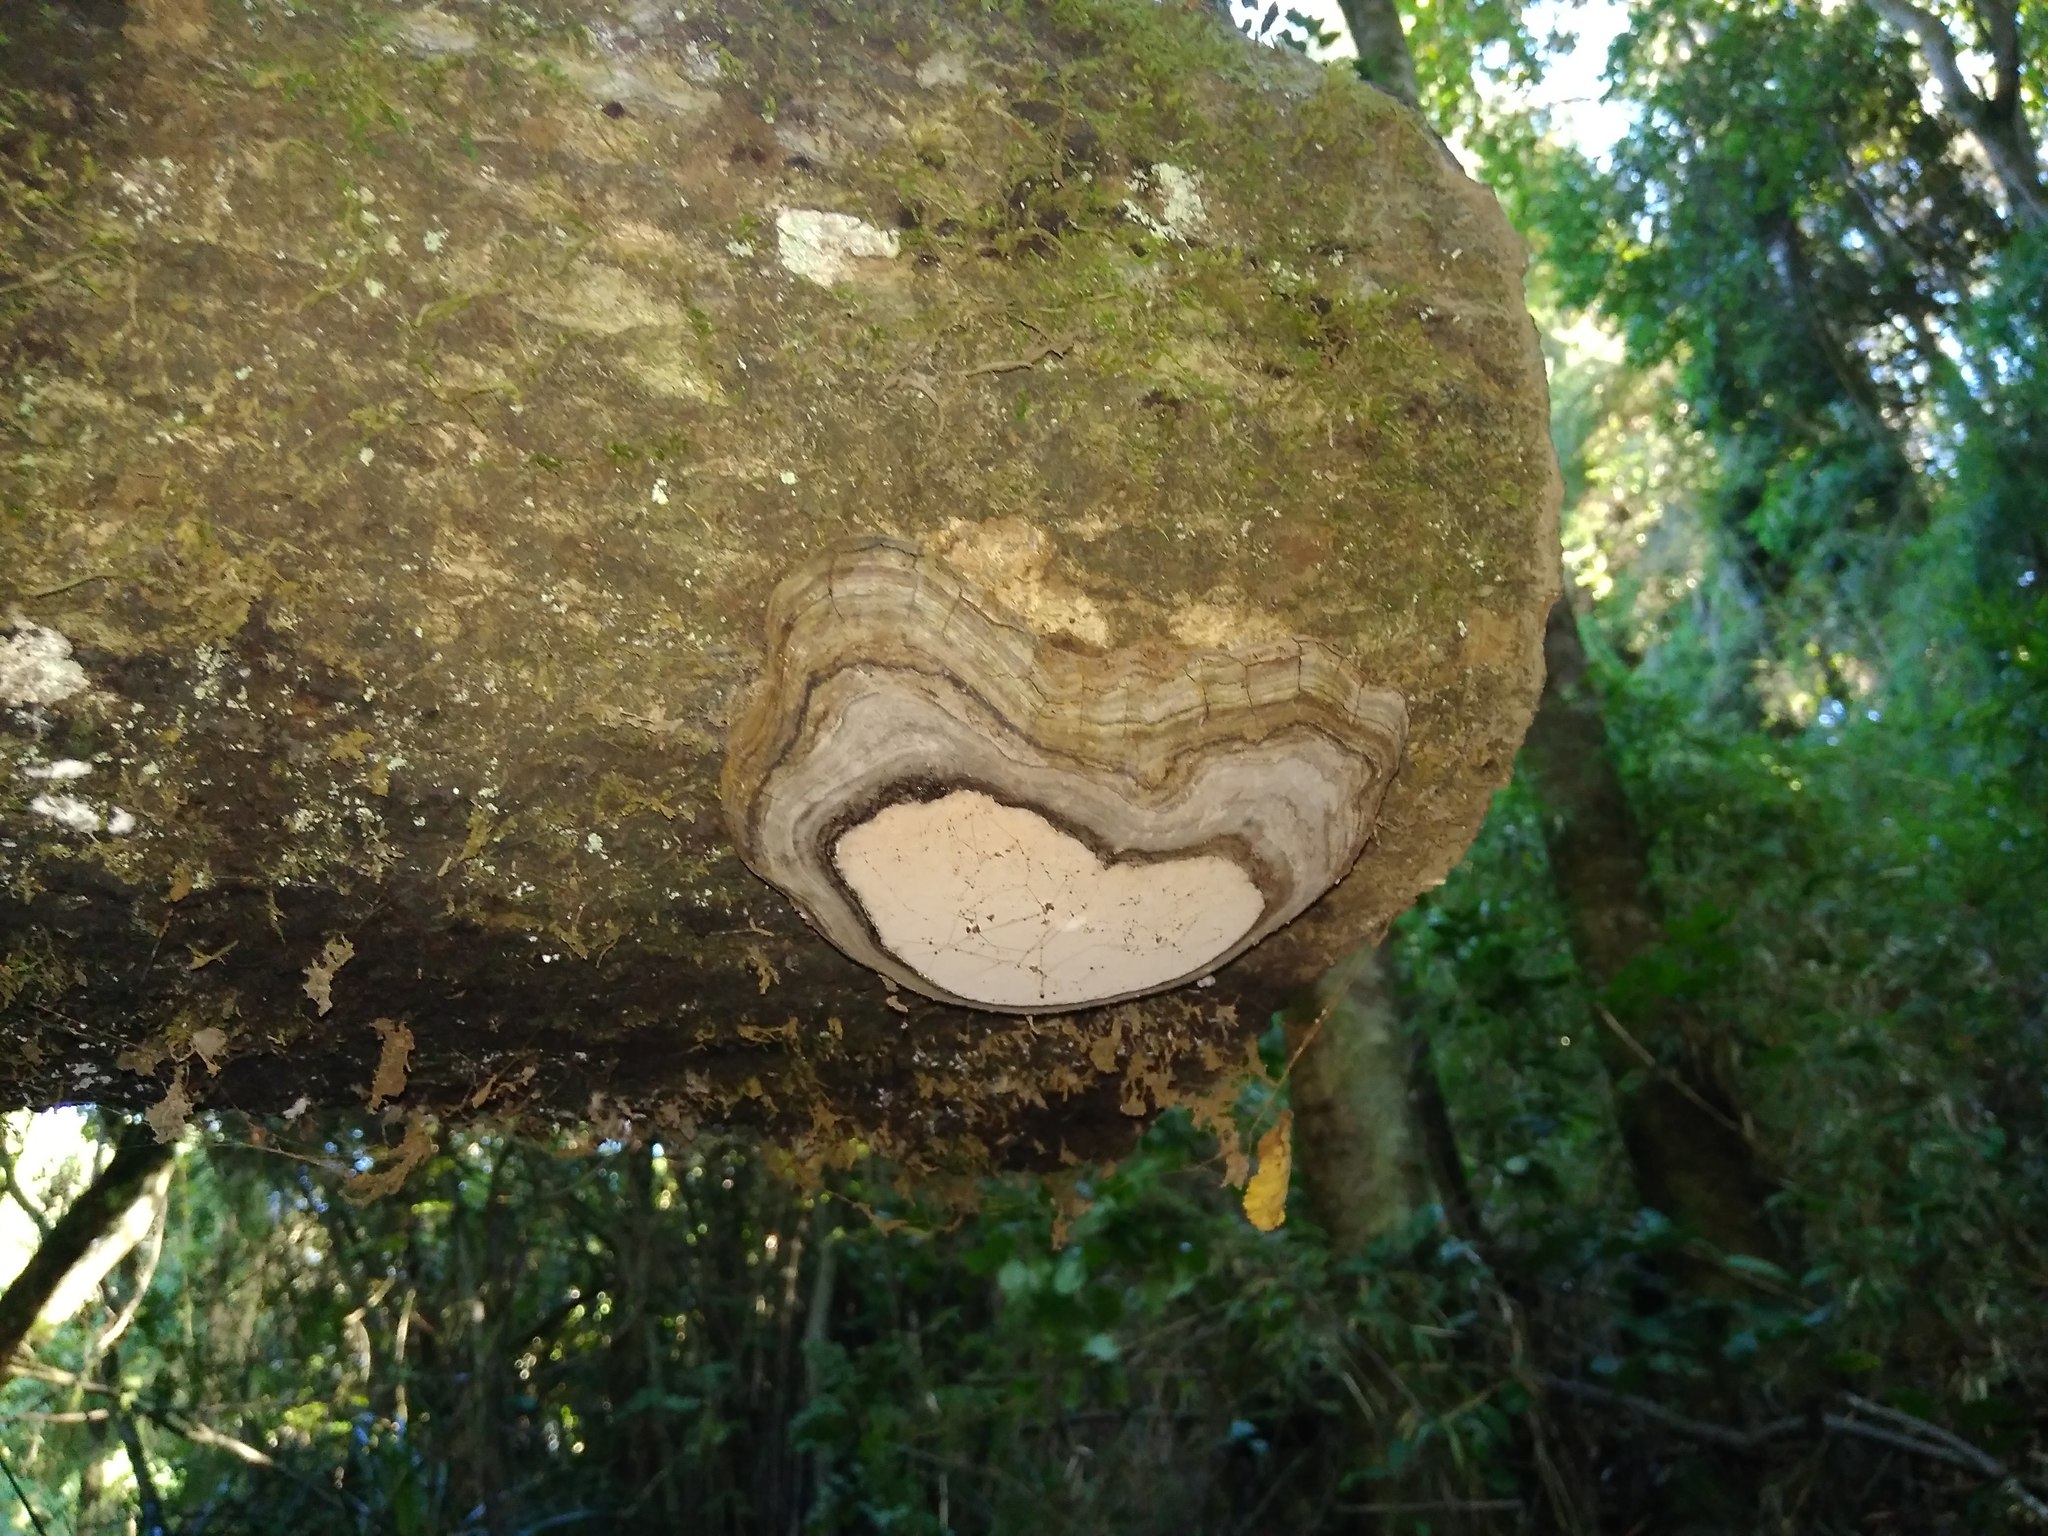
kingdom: Fungi
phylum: Basidiomycota
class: Agaricomycetes
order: Polyporales
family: Polyporaceae
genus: Ganoderma
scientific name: Ganoderma australe
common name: Southern bracket
